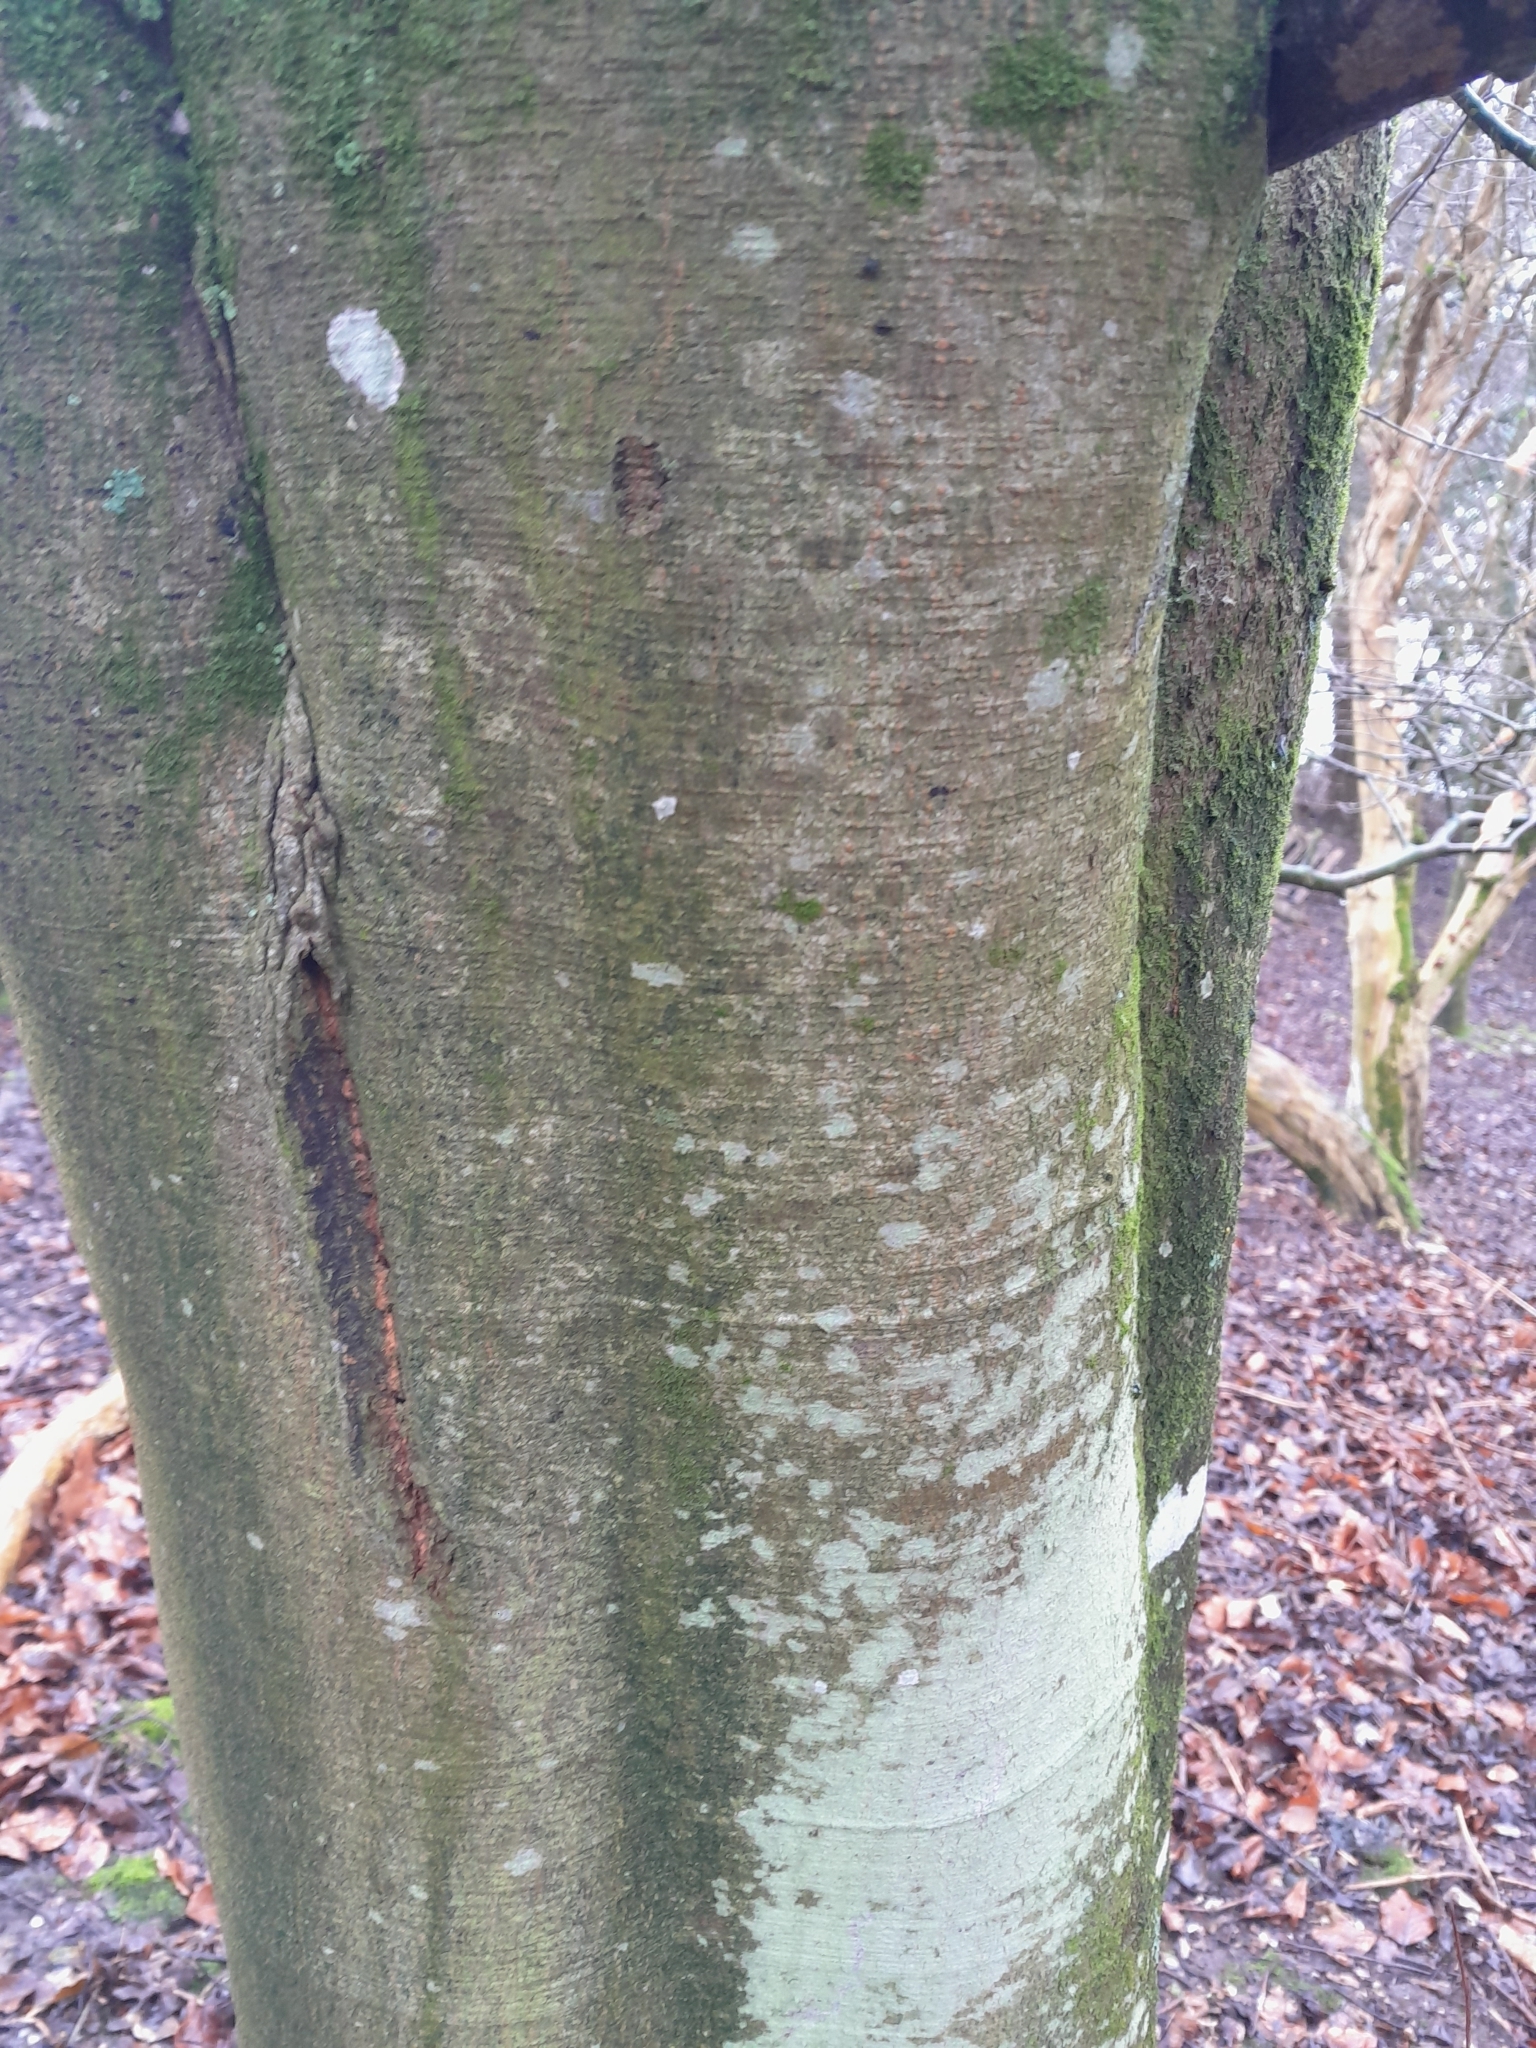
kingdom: Plantae
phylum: Tracheophyta
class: Magnoliopsida
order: Fagales
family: Fagaceae
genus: Fagus
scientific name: Fagus sylvatica
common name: Beech
